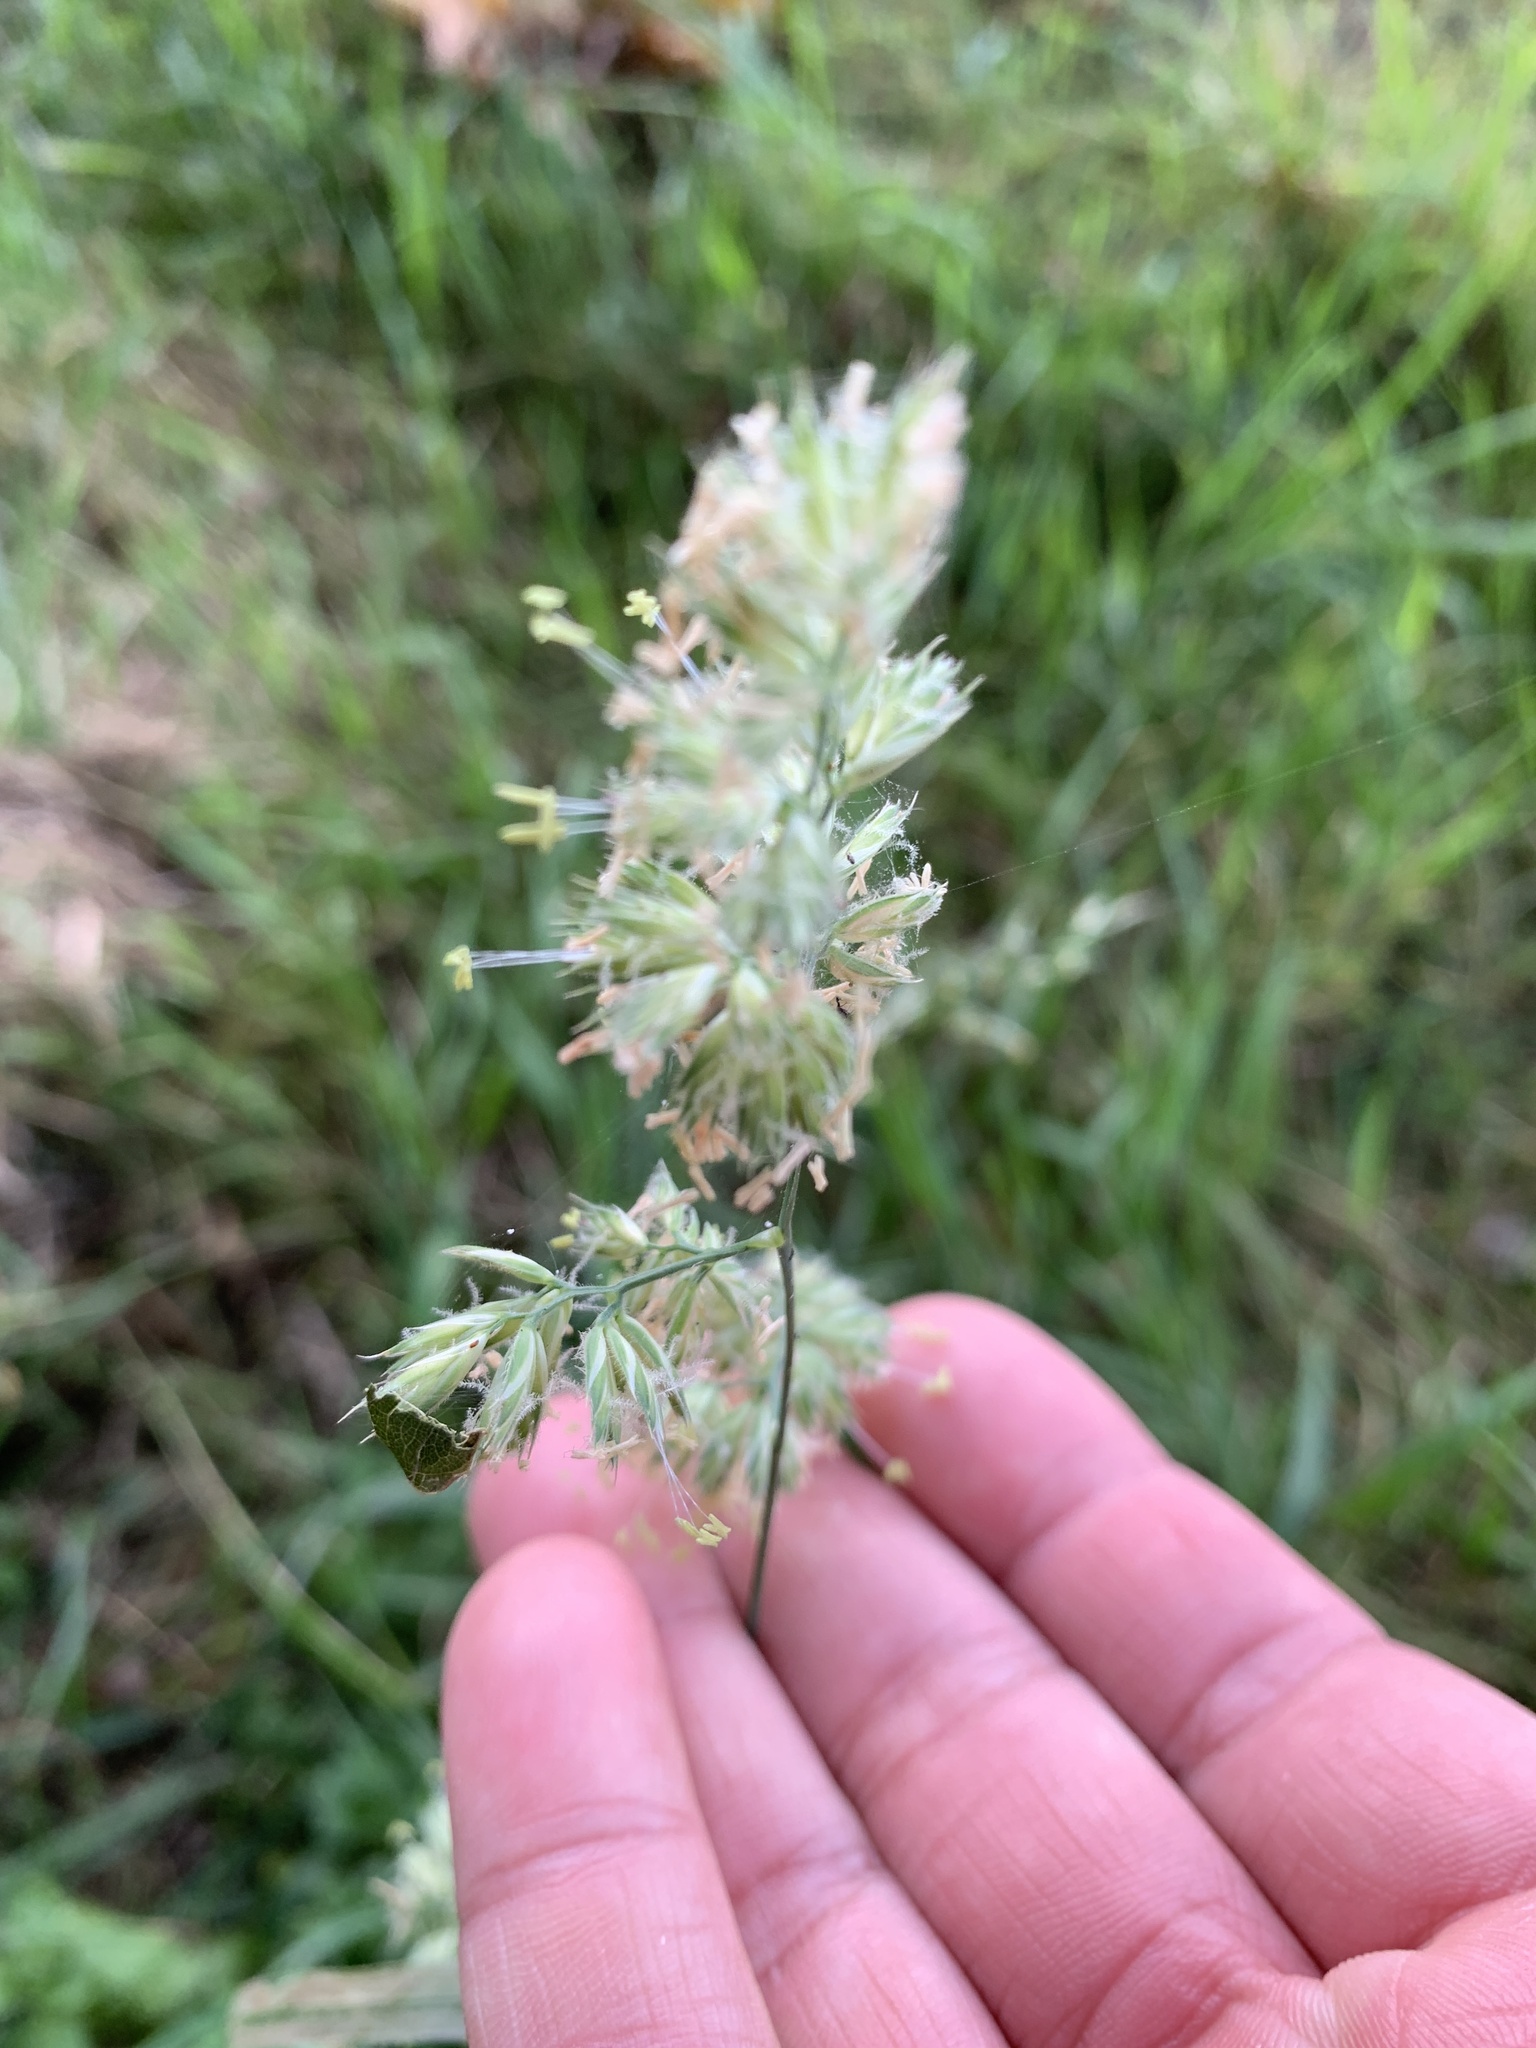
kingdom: Plantae
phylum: Tracheophyta
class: Liliopsida
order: Poales
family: Poaceae
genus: Dactylis
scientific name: Dactylis glomerata
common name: Orchardgrass
